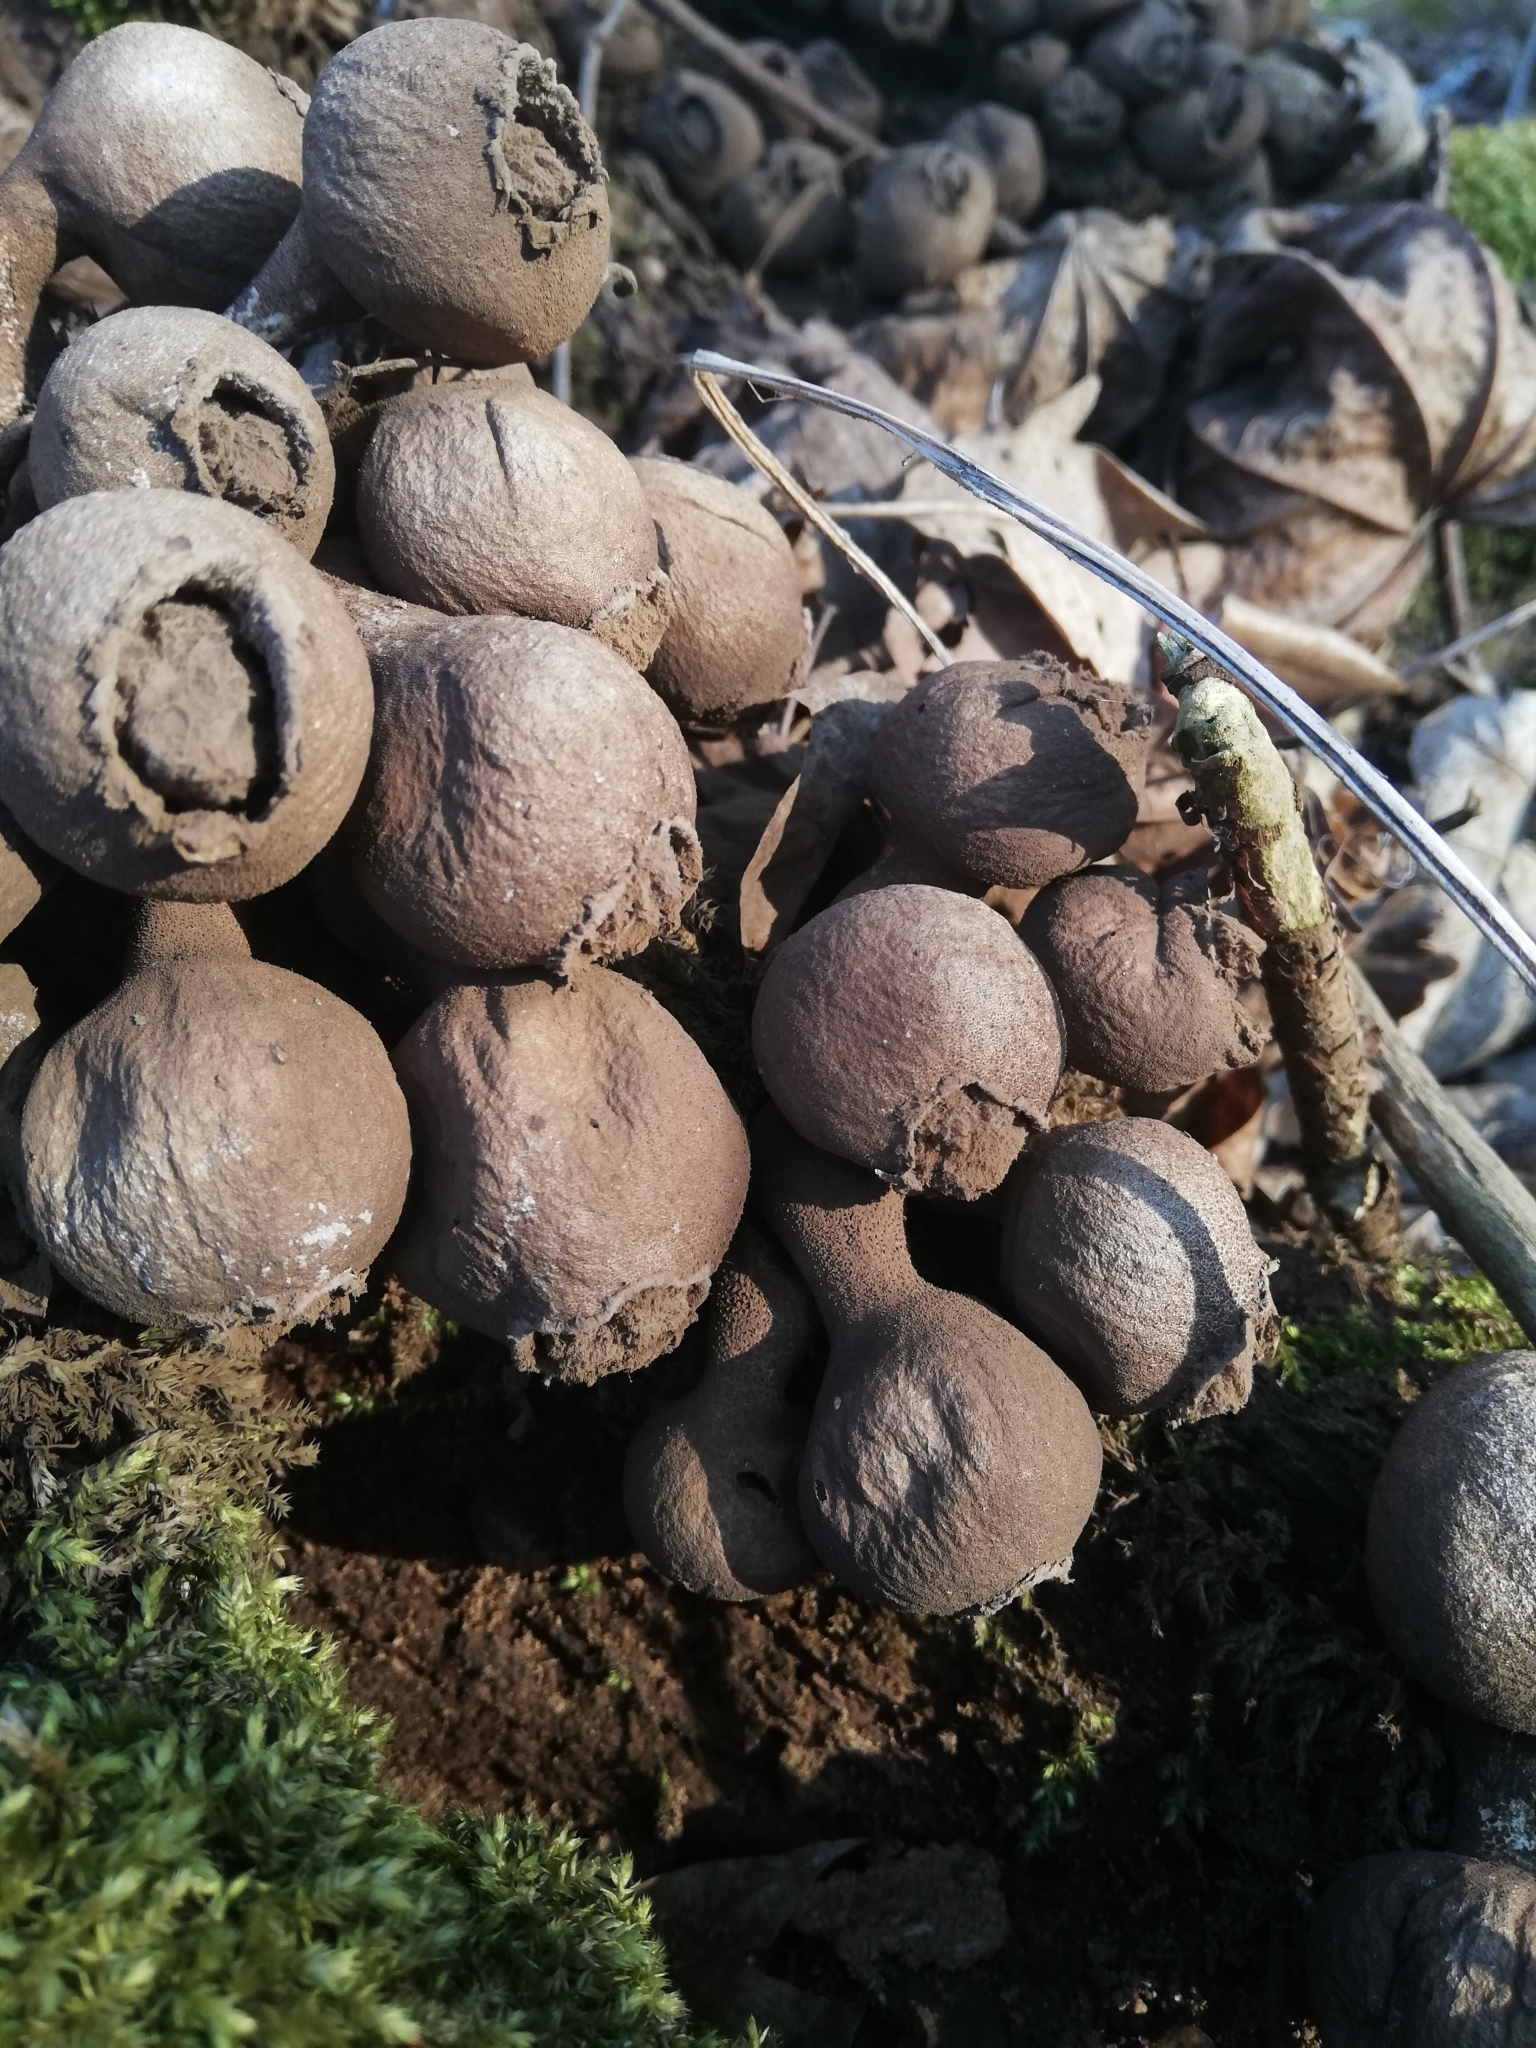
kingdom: Fungi
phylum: Basidiomycota
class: Agaricomycetes
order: Agaricales
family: Lycoperdaceae
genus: Apioperdon
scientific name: Apioperdon pyriforme
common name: Pear-shaped puffball
